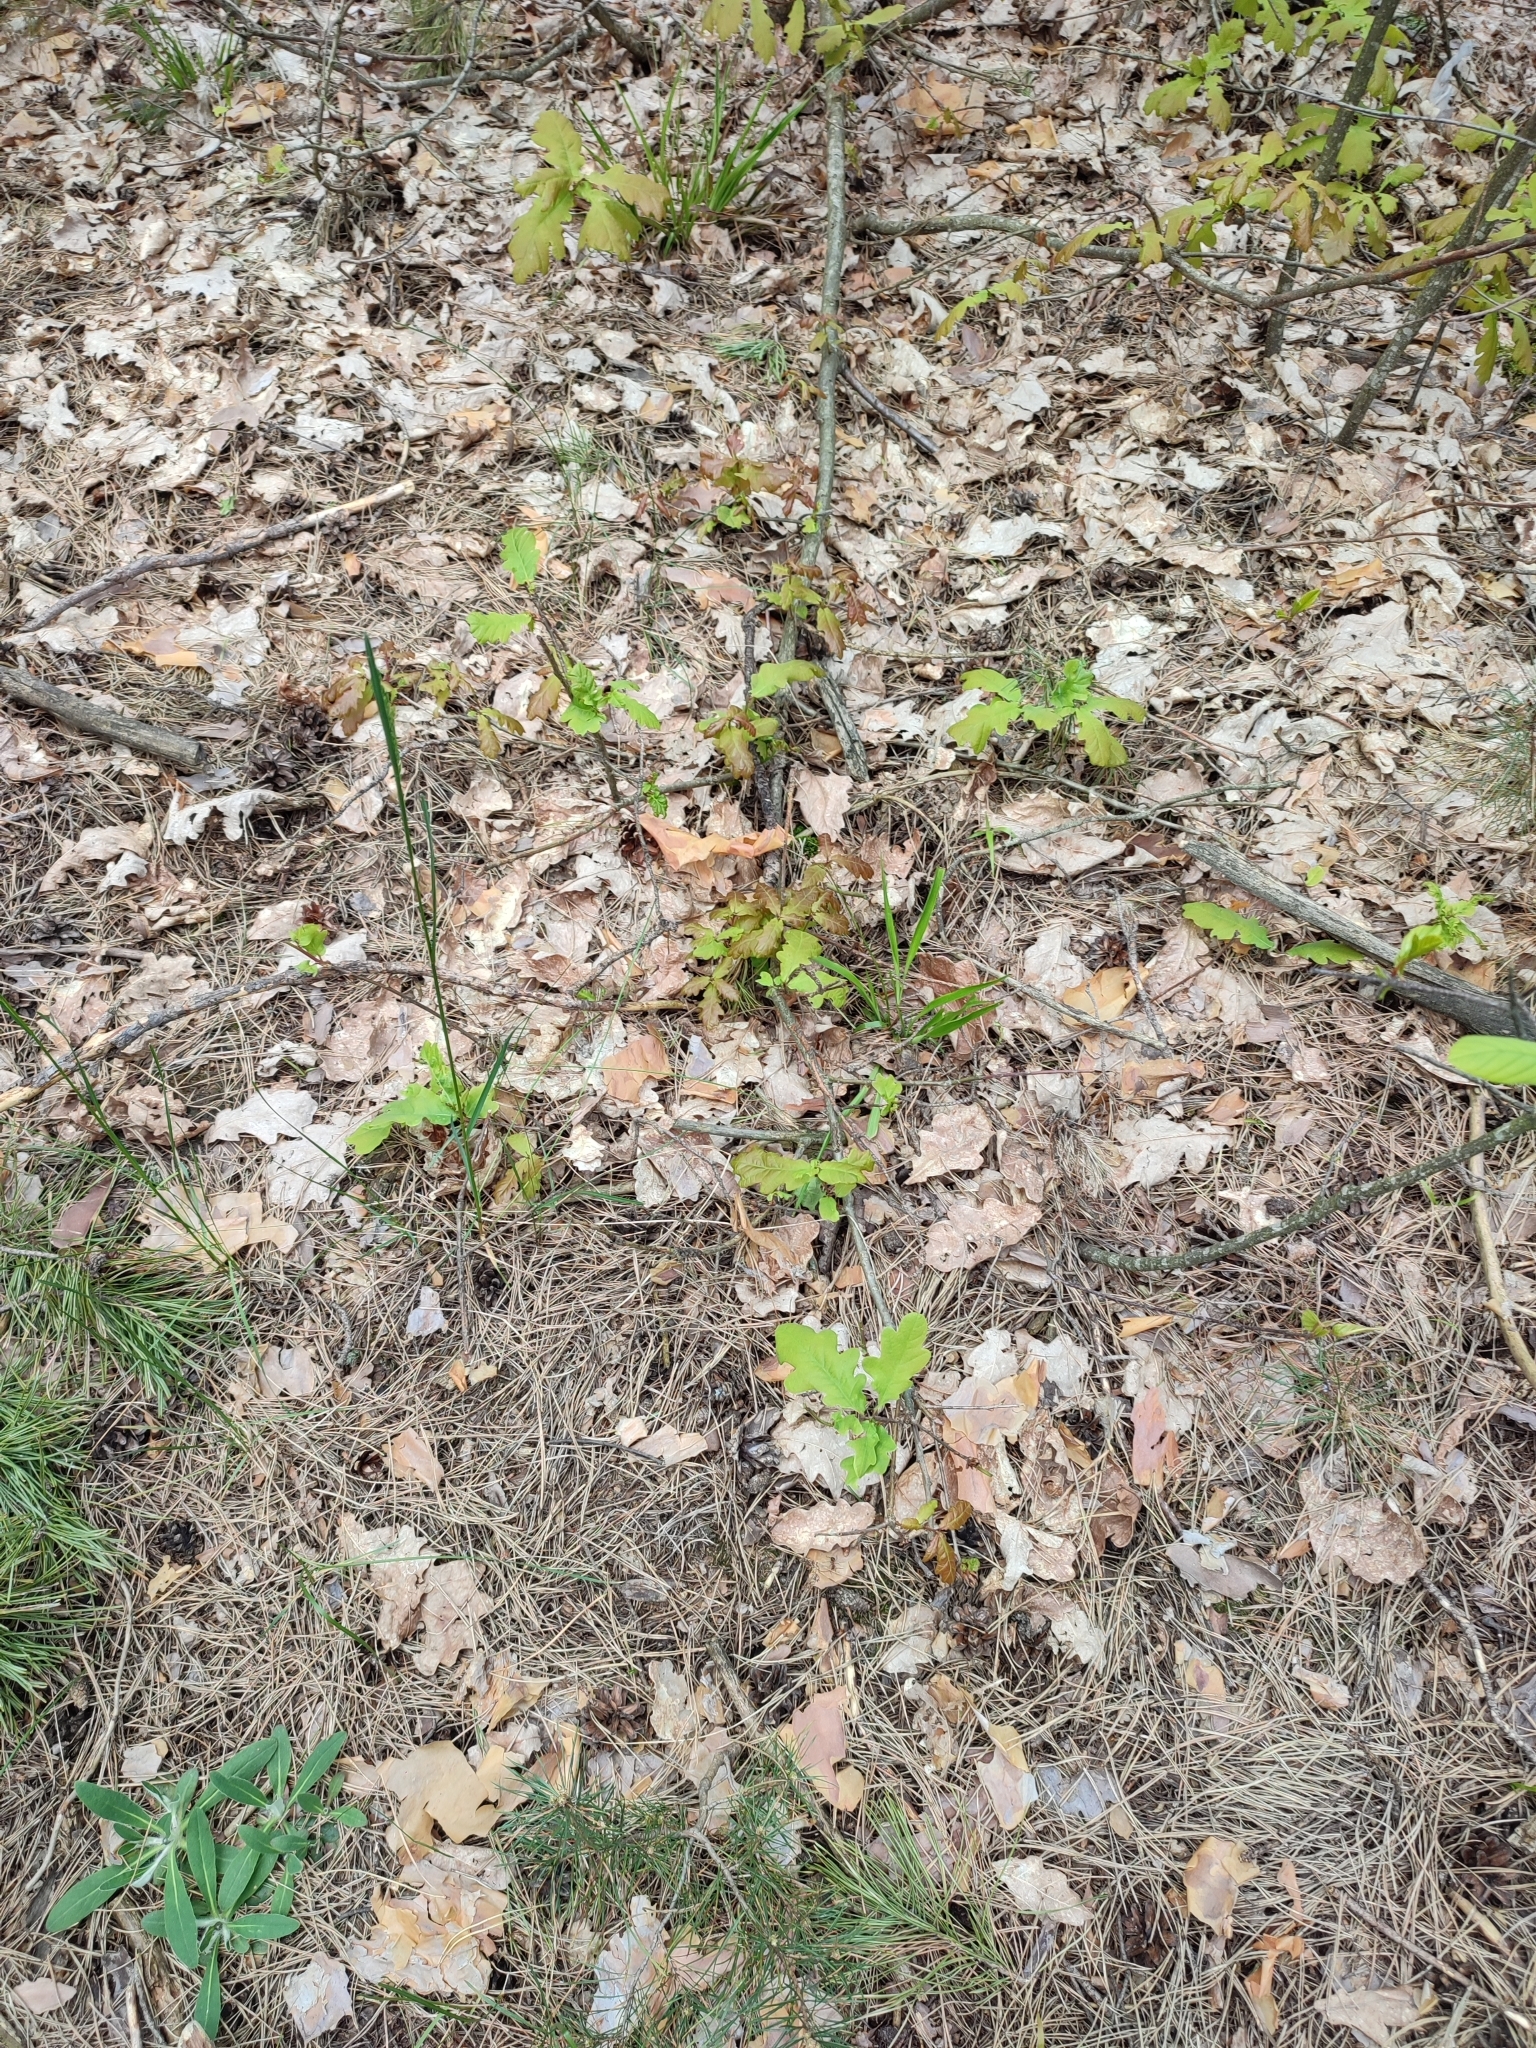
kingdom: Plantae
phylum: Tracheophyta
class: Magnoliopsida
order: Fagales
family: Fagaceae
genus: Quercus
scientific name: Quercus robur
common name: Pedunculate oak
